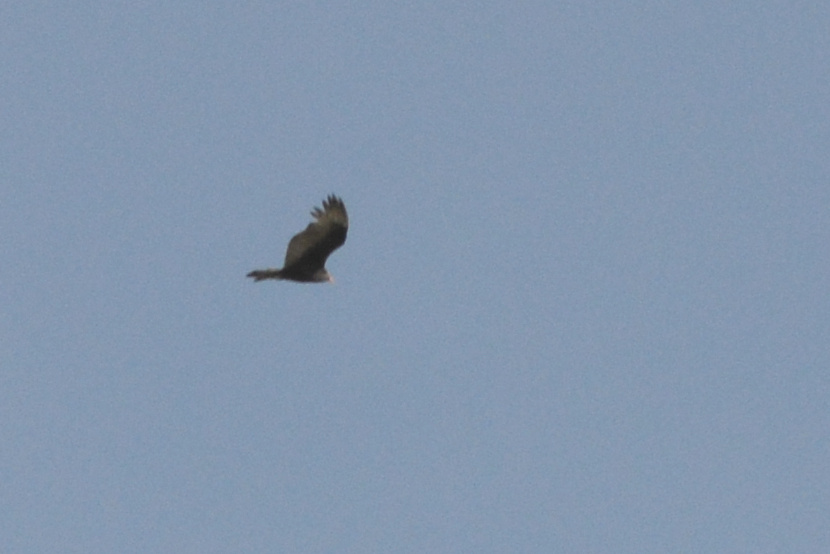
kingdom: Animalia
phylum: Chordata
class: Aves
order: Accipitriformes
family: Cathartidae
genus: Cathartes
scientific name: Cathartes aura
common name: Turkey vulture
